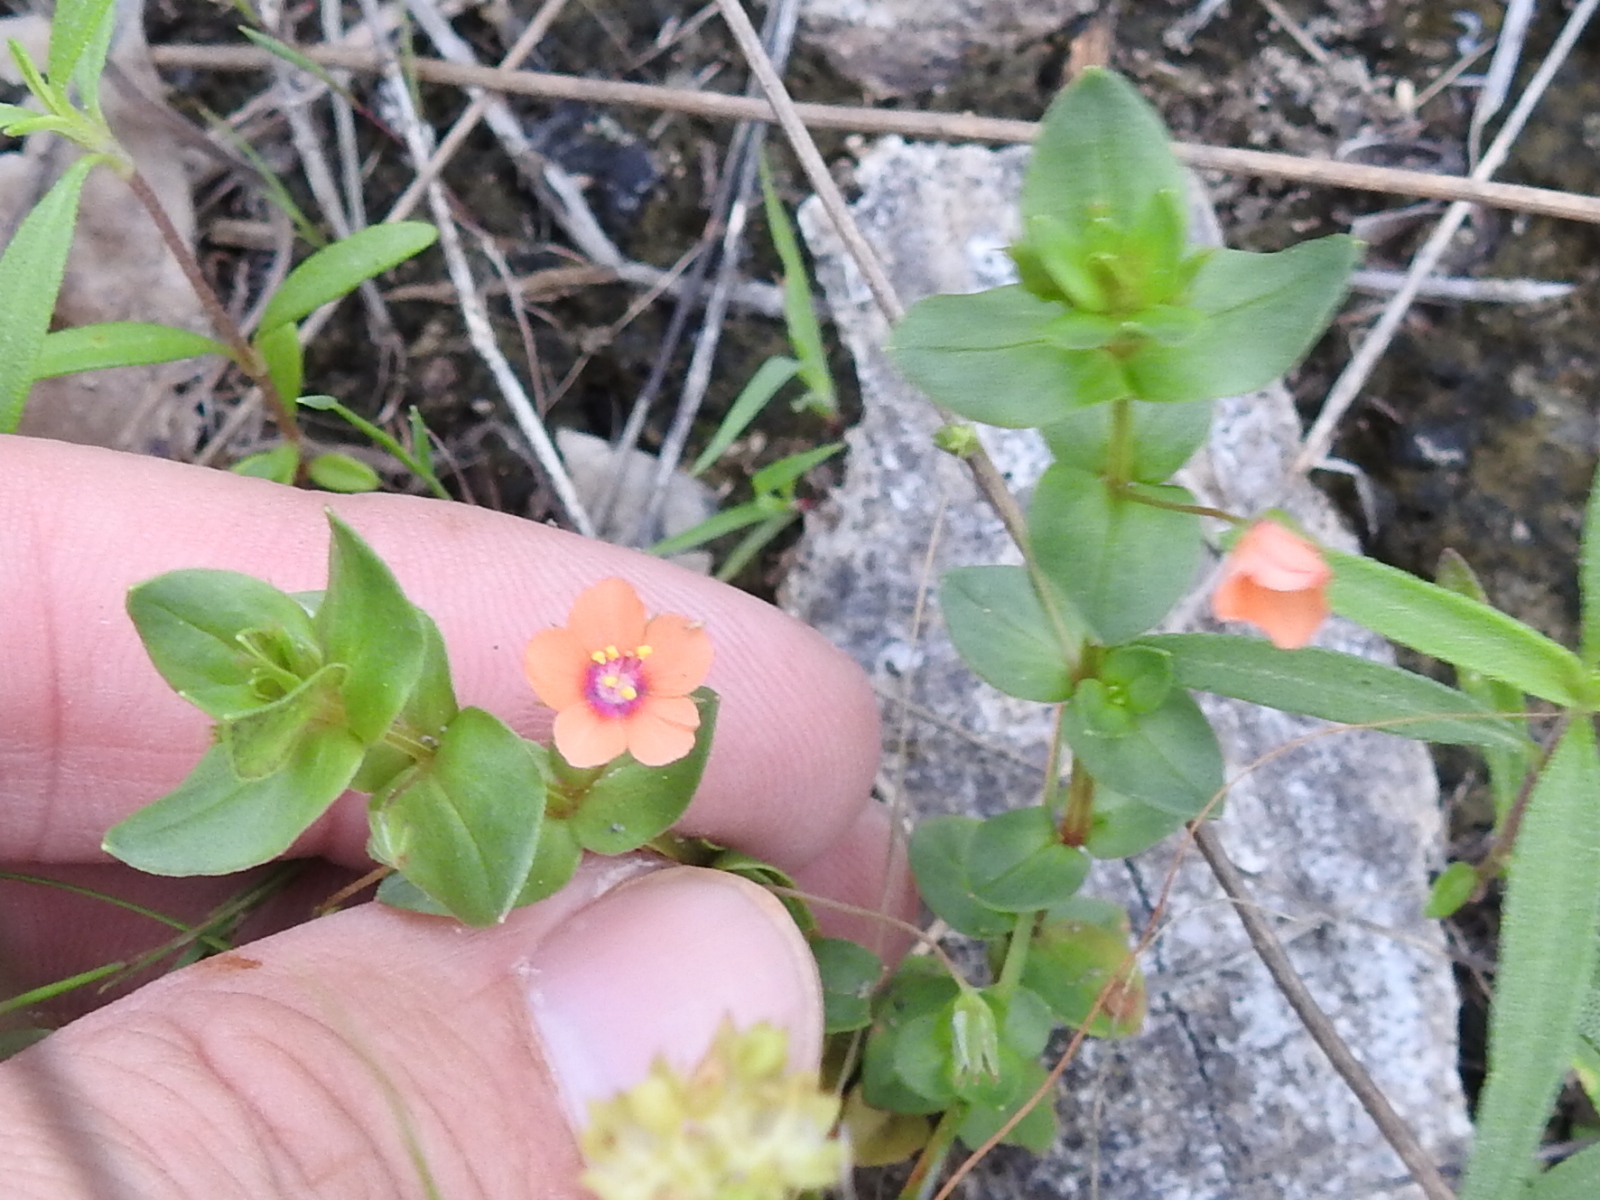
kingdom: Plantae
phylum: Tracheophyta
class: Magnoliopsida
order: Ericales
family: Primulaceae
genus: Lysimachia
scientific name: Lysimachia arvensis
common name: Scarlet pimpernel
